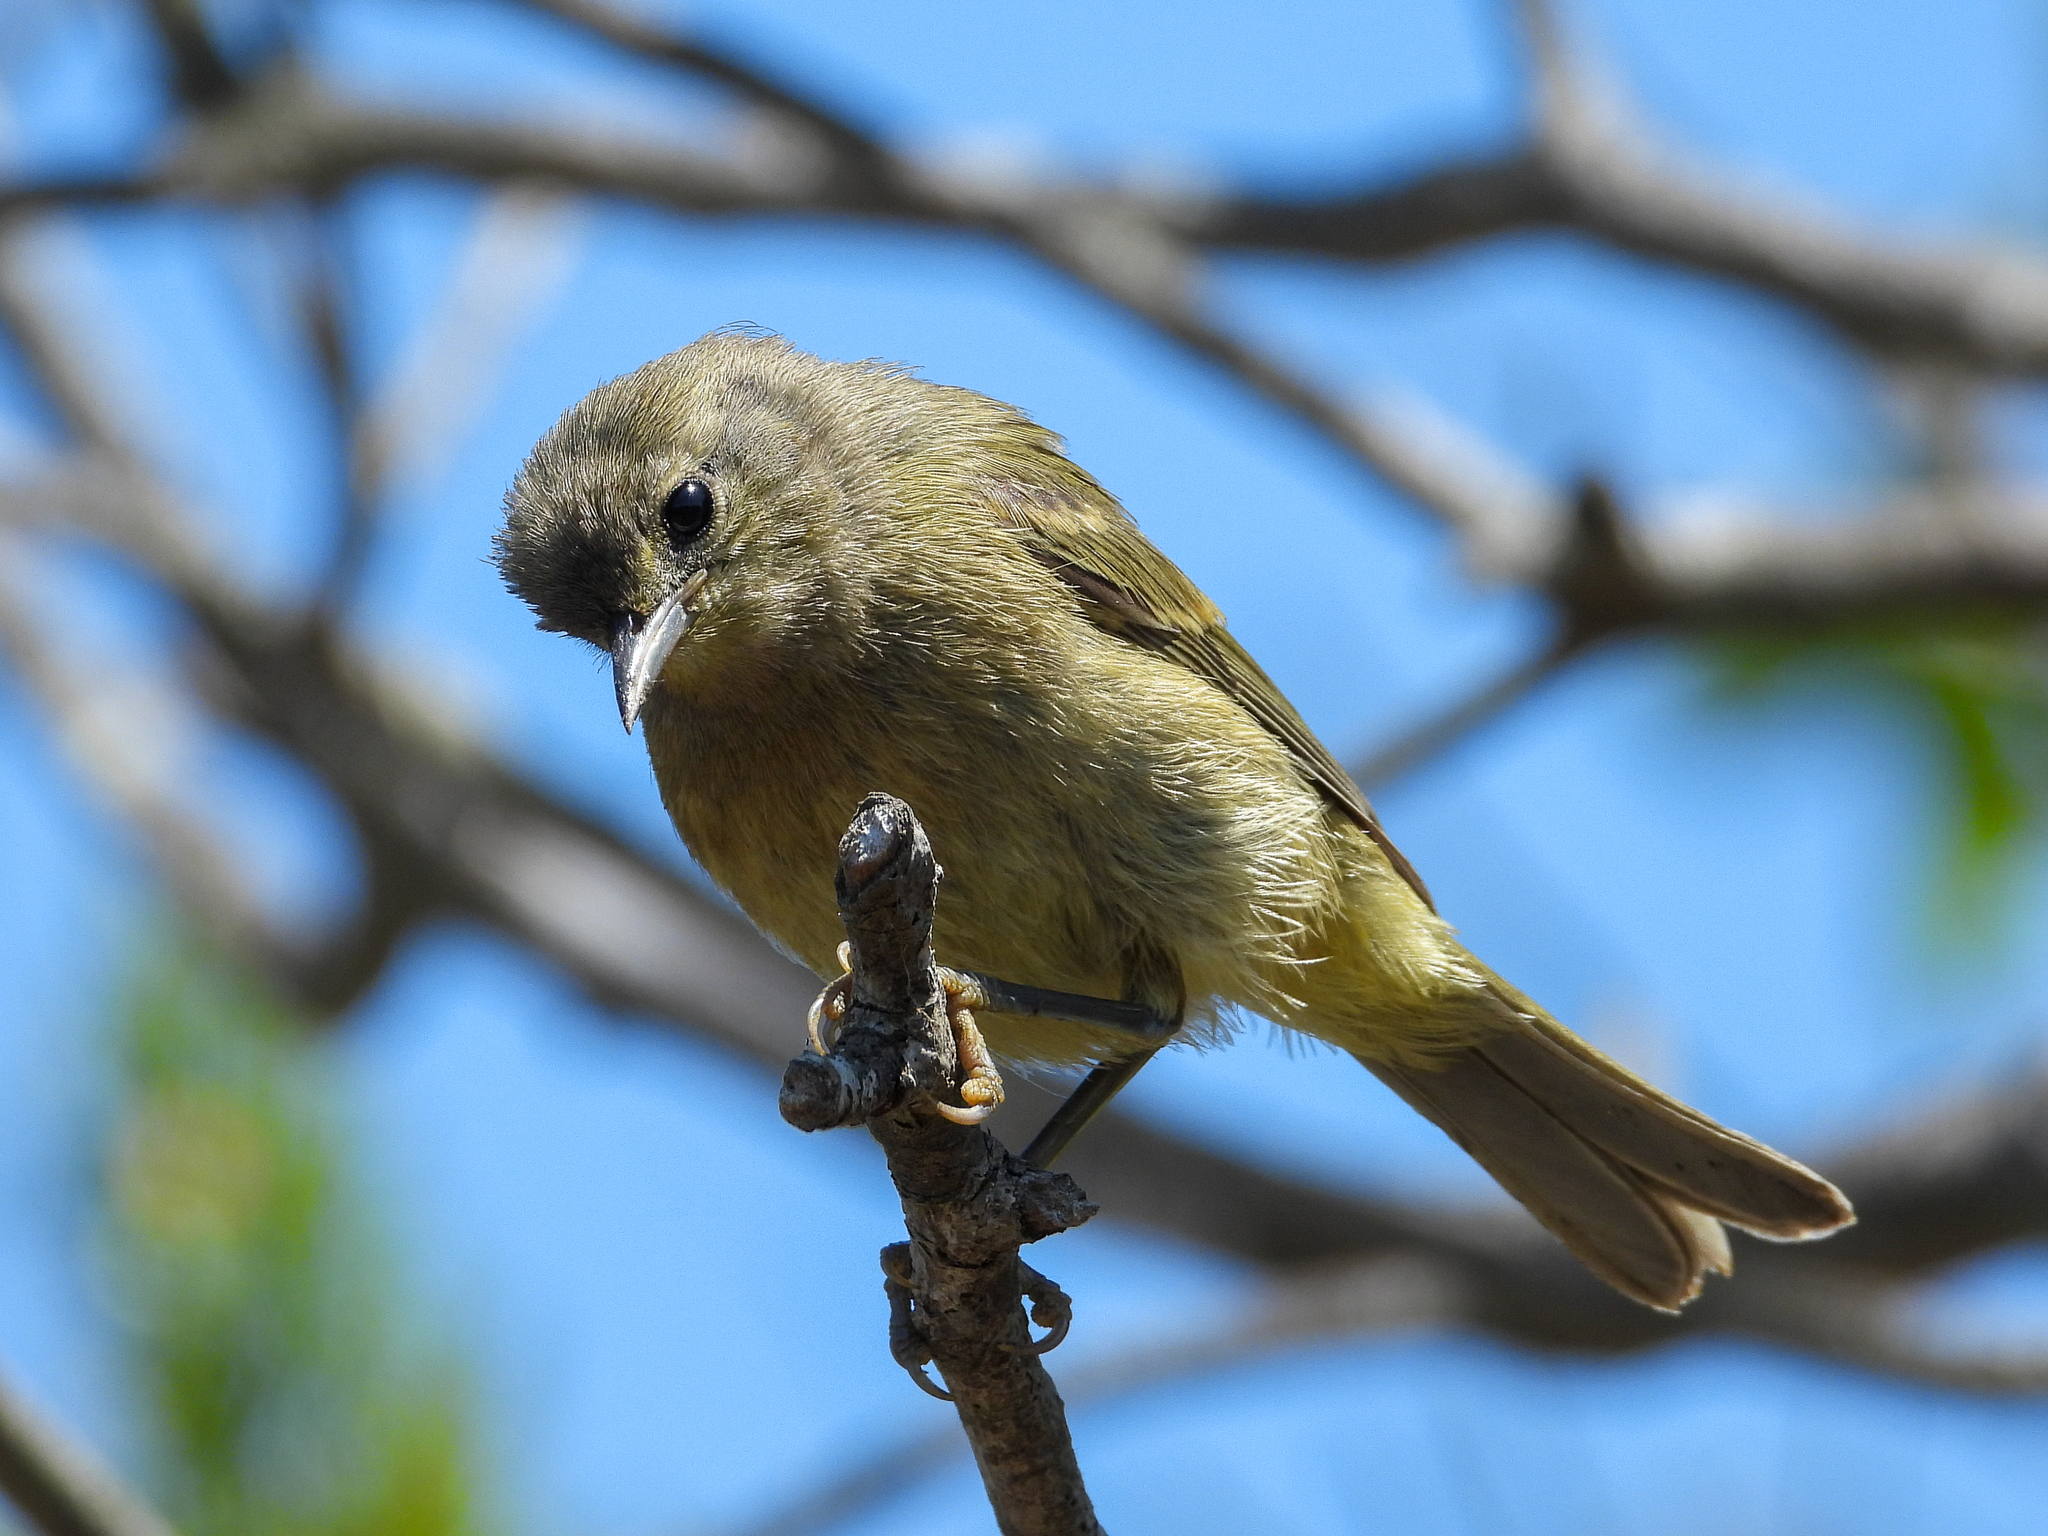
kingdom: Animalia
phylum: Chordata
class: Aves
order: Passeriformes
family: Parulidae
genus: Leiothlypis
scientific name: Leiothlypis celata
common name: Orange-crowned warbler
